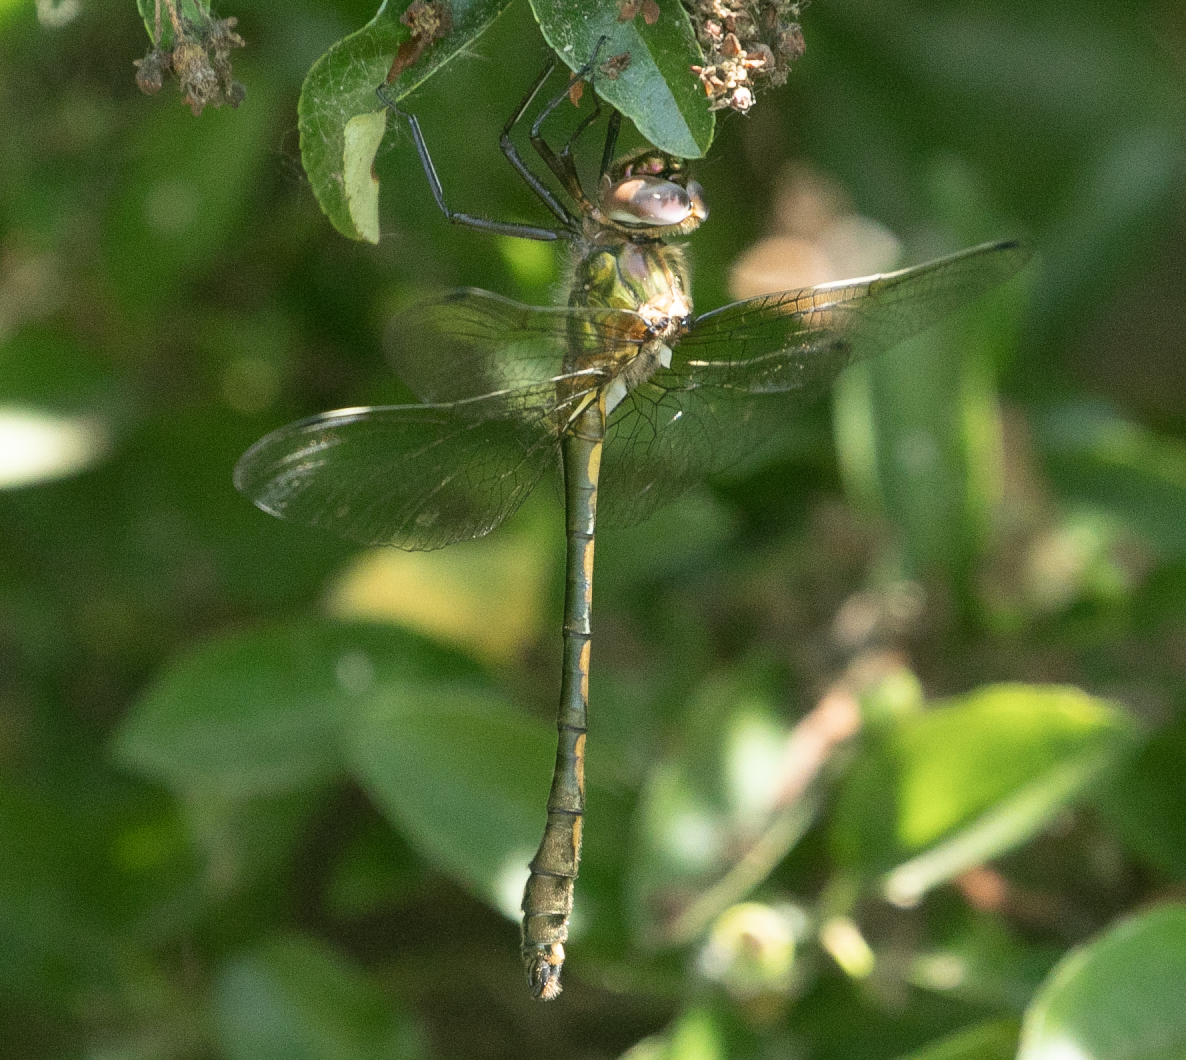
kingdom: Animalia
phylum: Arthropoda
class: Insecta
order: Odonata
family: Corduliidae
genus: Oxygastra
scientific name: Oxygastra curtisii
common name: Orange-spotted emerald
